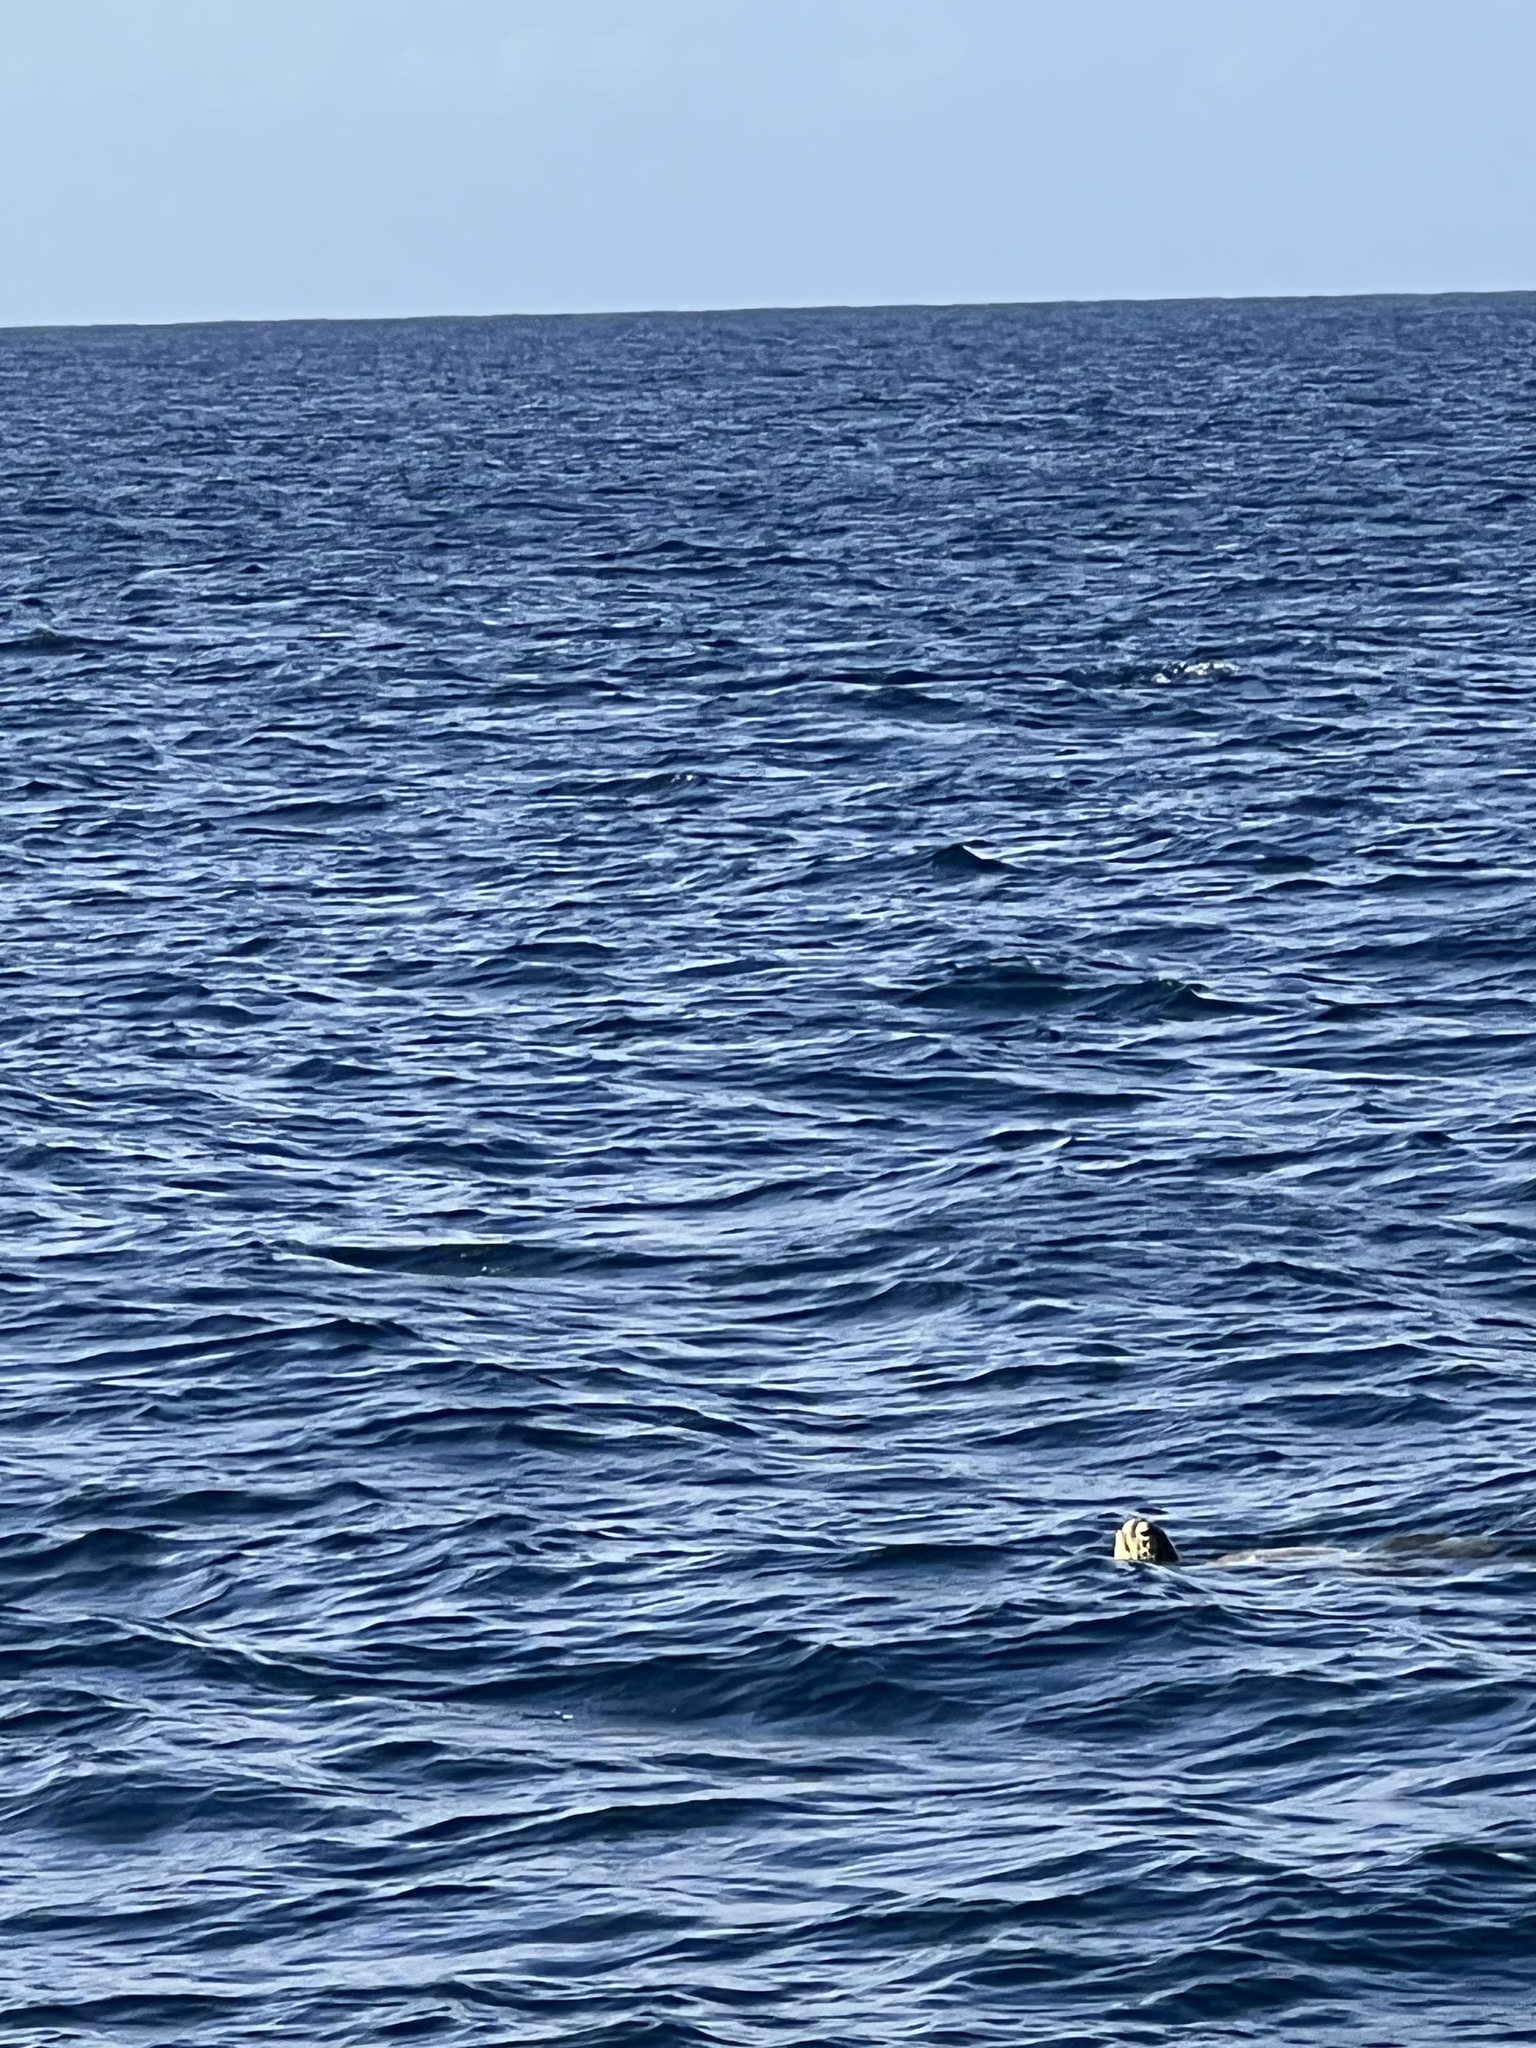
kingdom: Animalia
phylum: Chordata
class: Testudines
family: Cheloniidae
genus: Chelonia
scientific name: Chelonia mydas
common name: Green turtle
